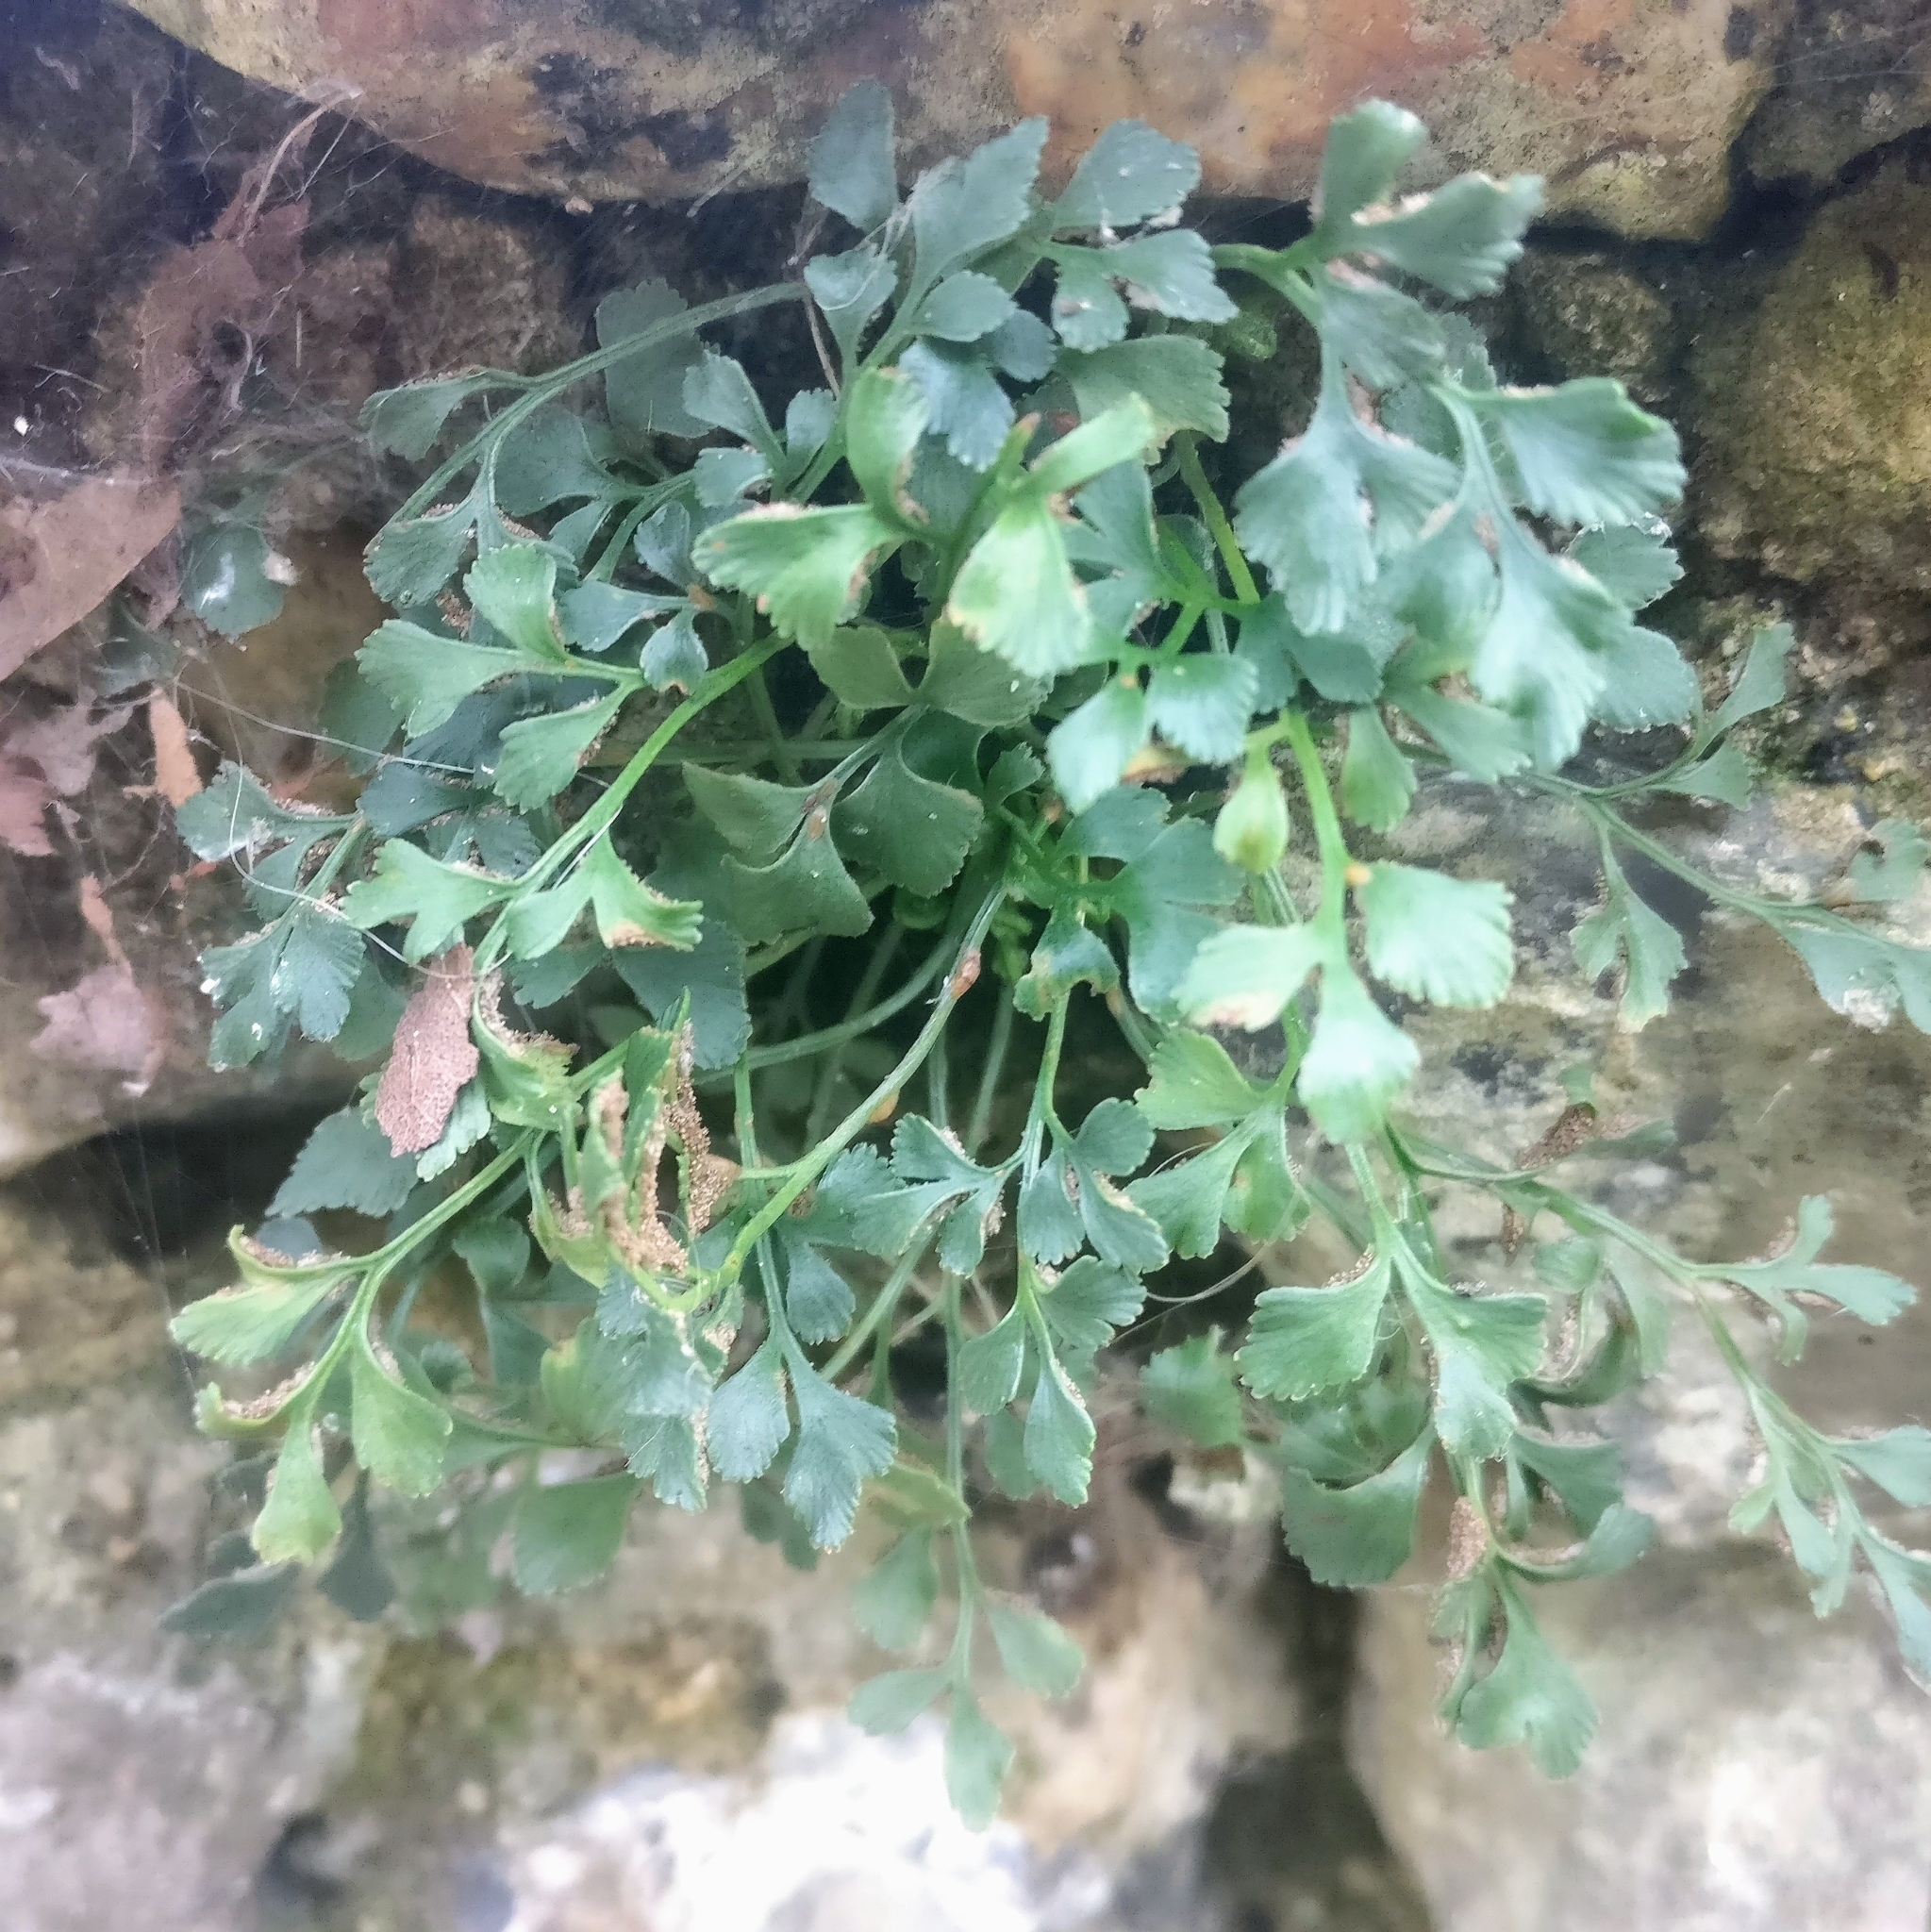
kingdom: Plantae
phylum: Tracheophyta
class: Polypodiopsida
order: Polypodiales
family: Aspleniaceae
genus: Asplenium
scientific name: Asplenium ruta-muraria
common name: Wall-rue
